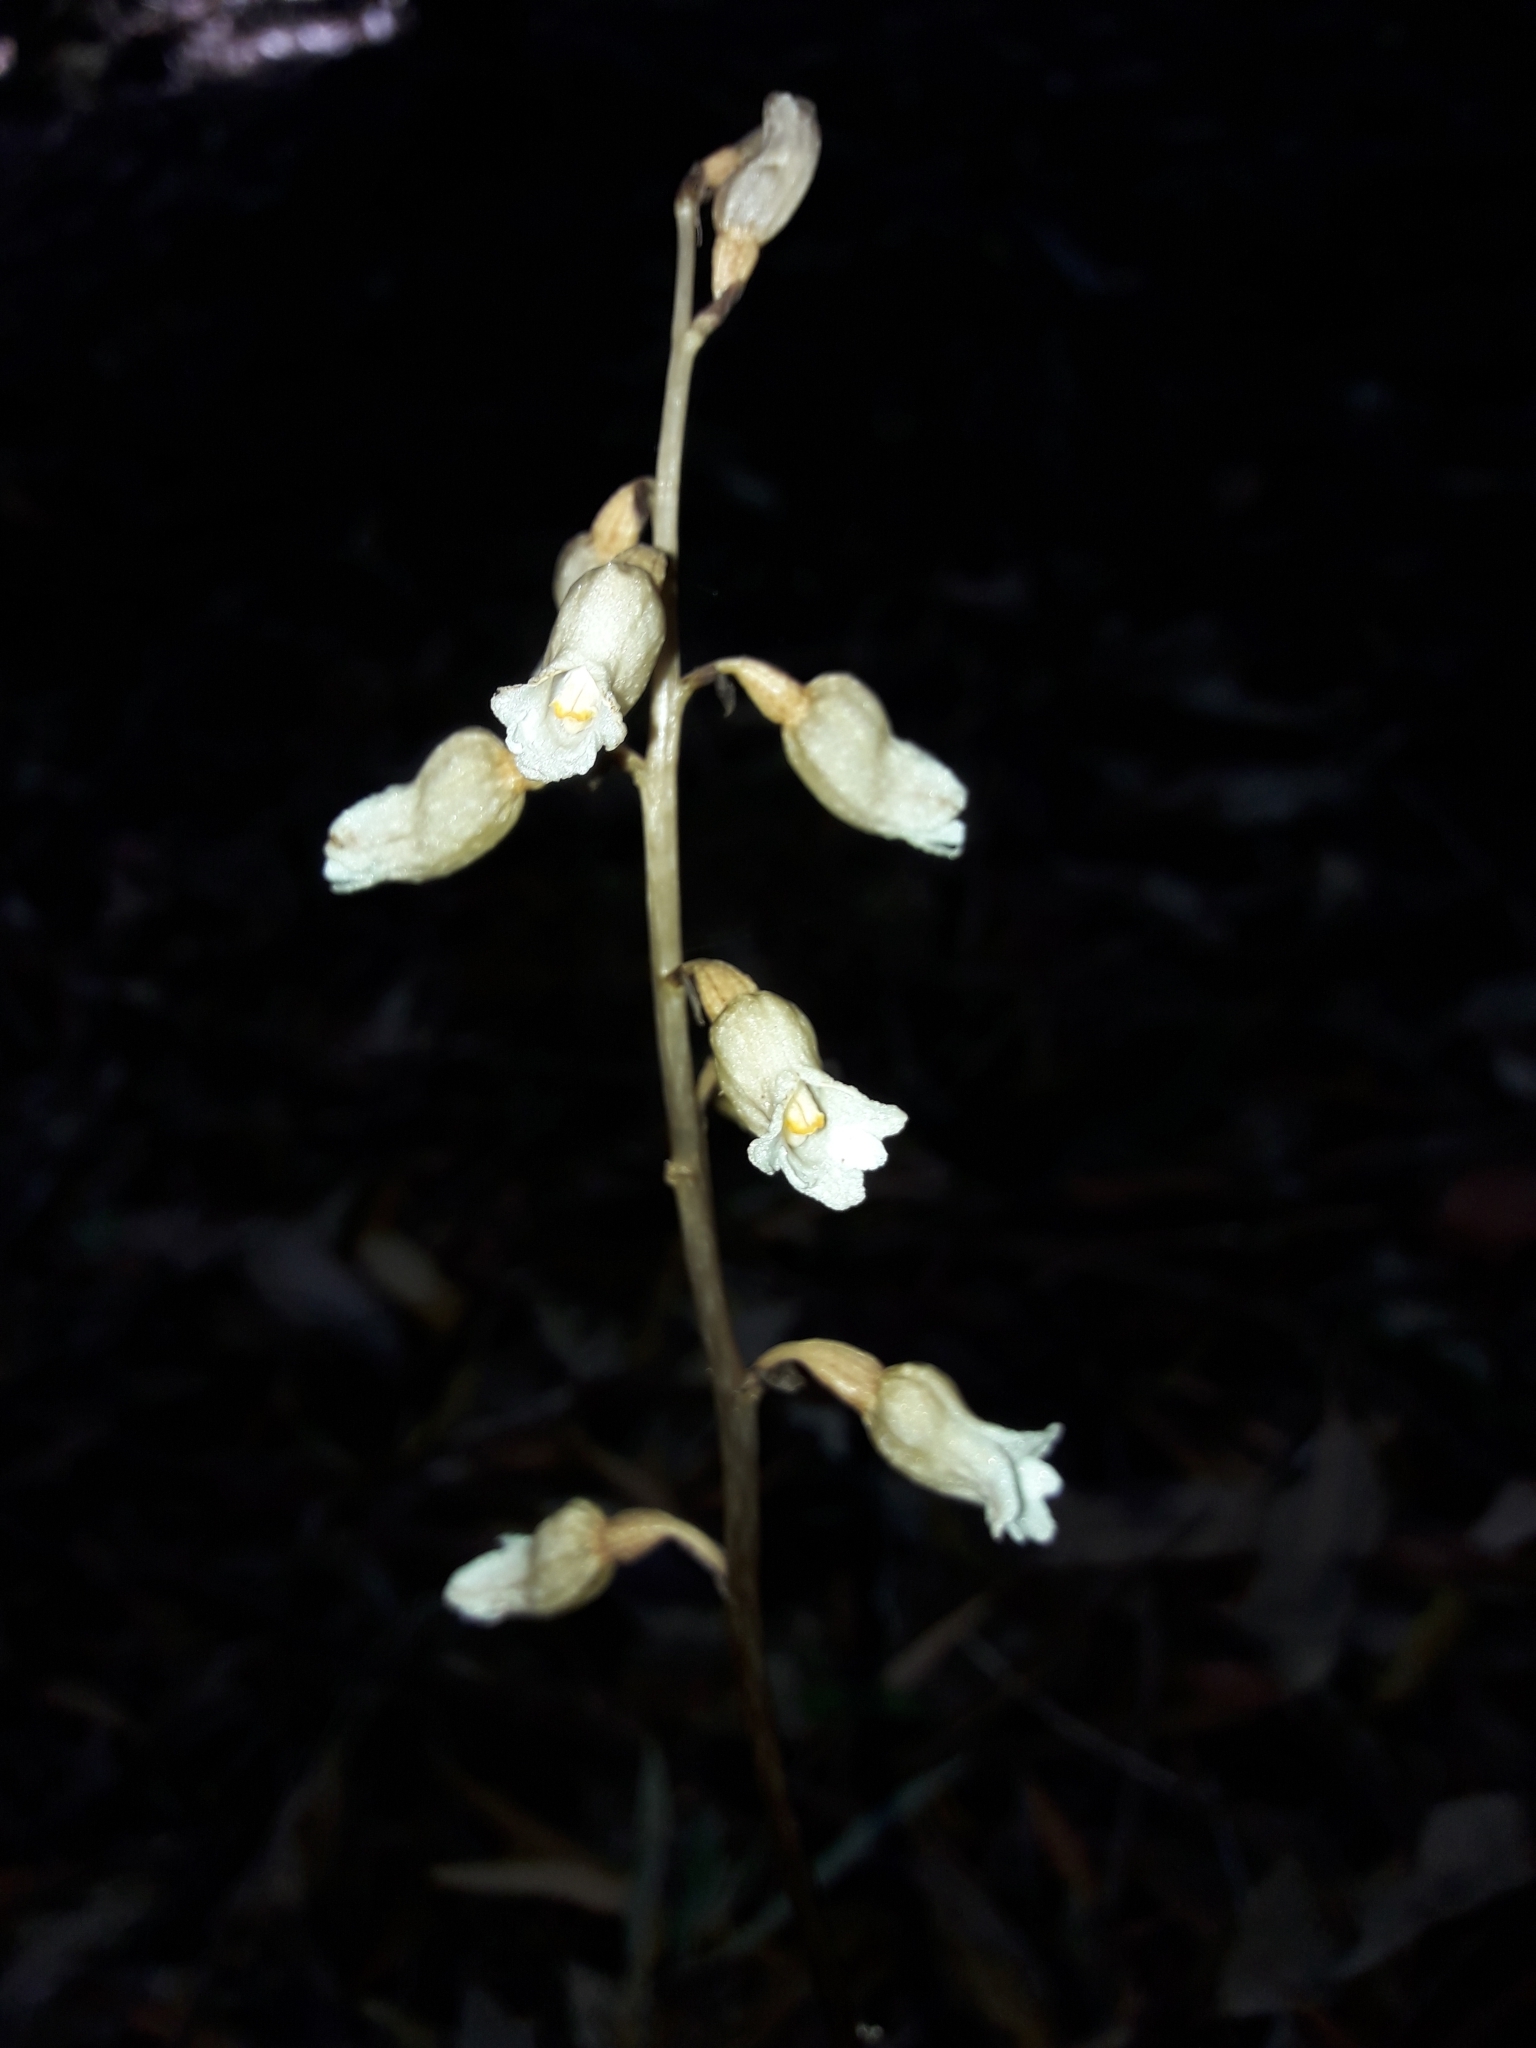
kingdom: Plantae
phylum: Tracheophyta
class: Liliopsida
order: Asparagales
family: Orchidaceae
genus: Gastrodia
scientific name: Gastrodia sesamoides
